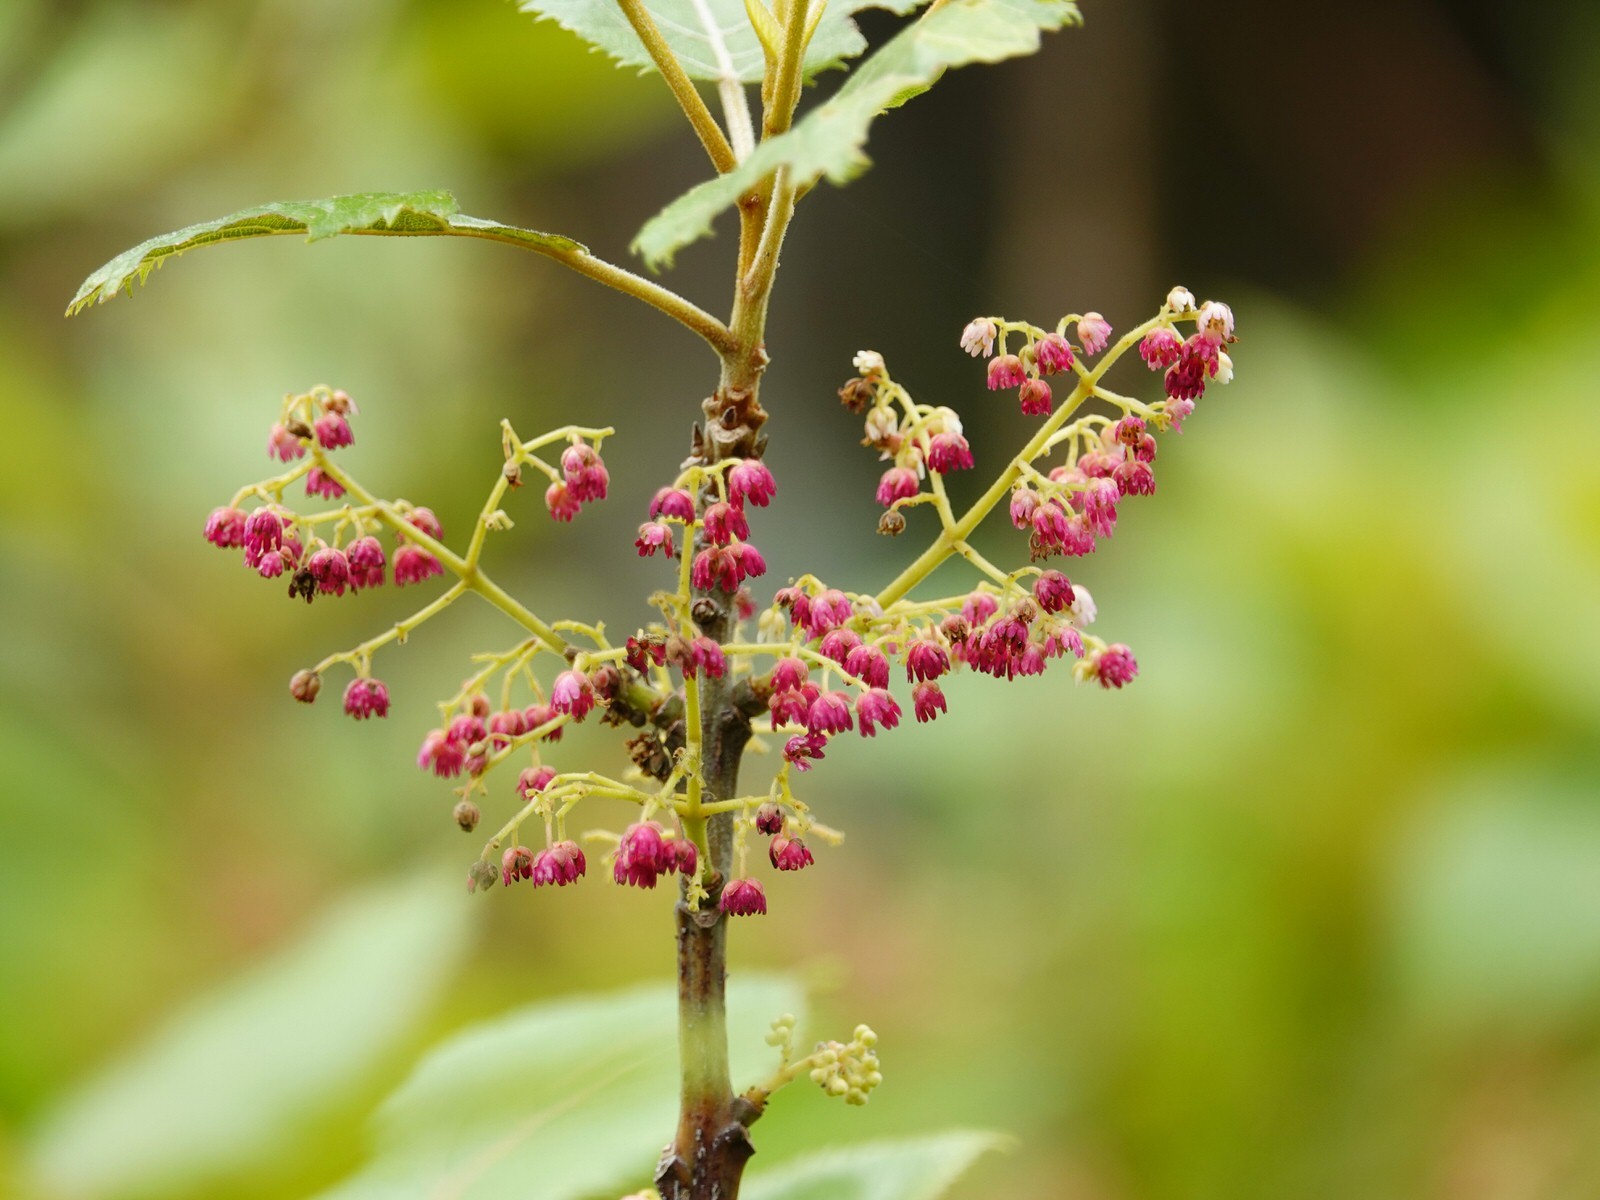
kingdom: Plantae
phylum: Tracheophyta
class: Magnoliopsida
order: Oxalidales
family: Elaeocarpaceae
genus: Aristotelia
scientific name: Aristotelia serrata
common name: New zealand wineberry
